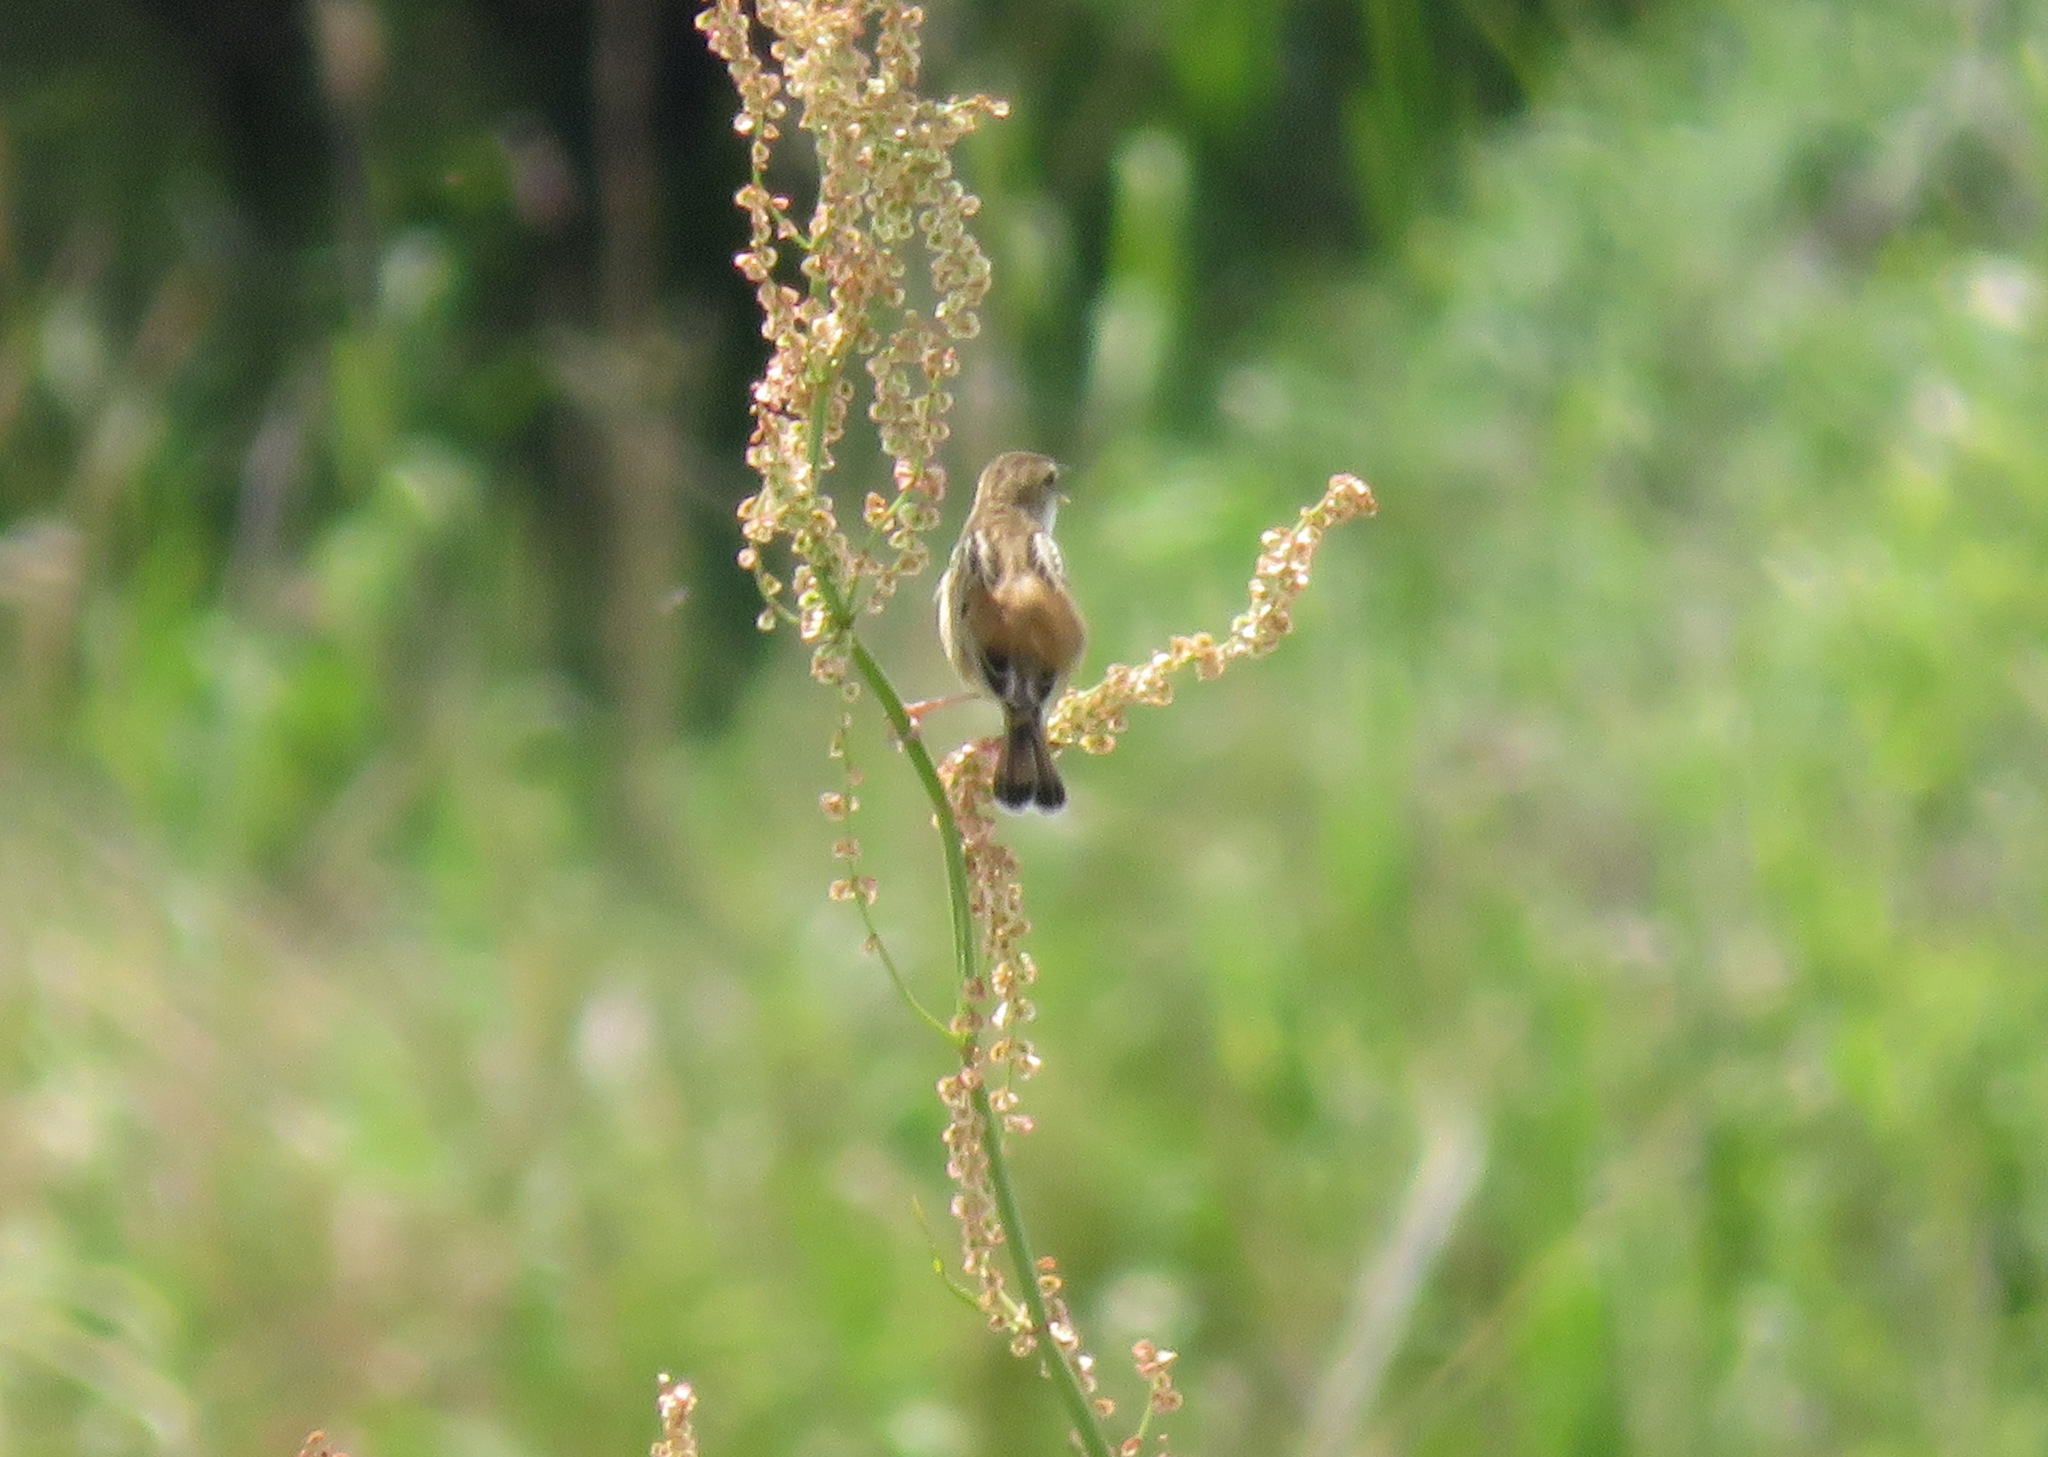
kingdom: Animalia
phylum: Chordata
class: Aves
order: Passeriformes
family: Cisticolidae
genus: Cisticola
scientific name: Cisticola juncidis
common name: Zitting cisticola
